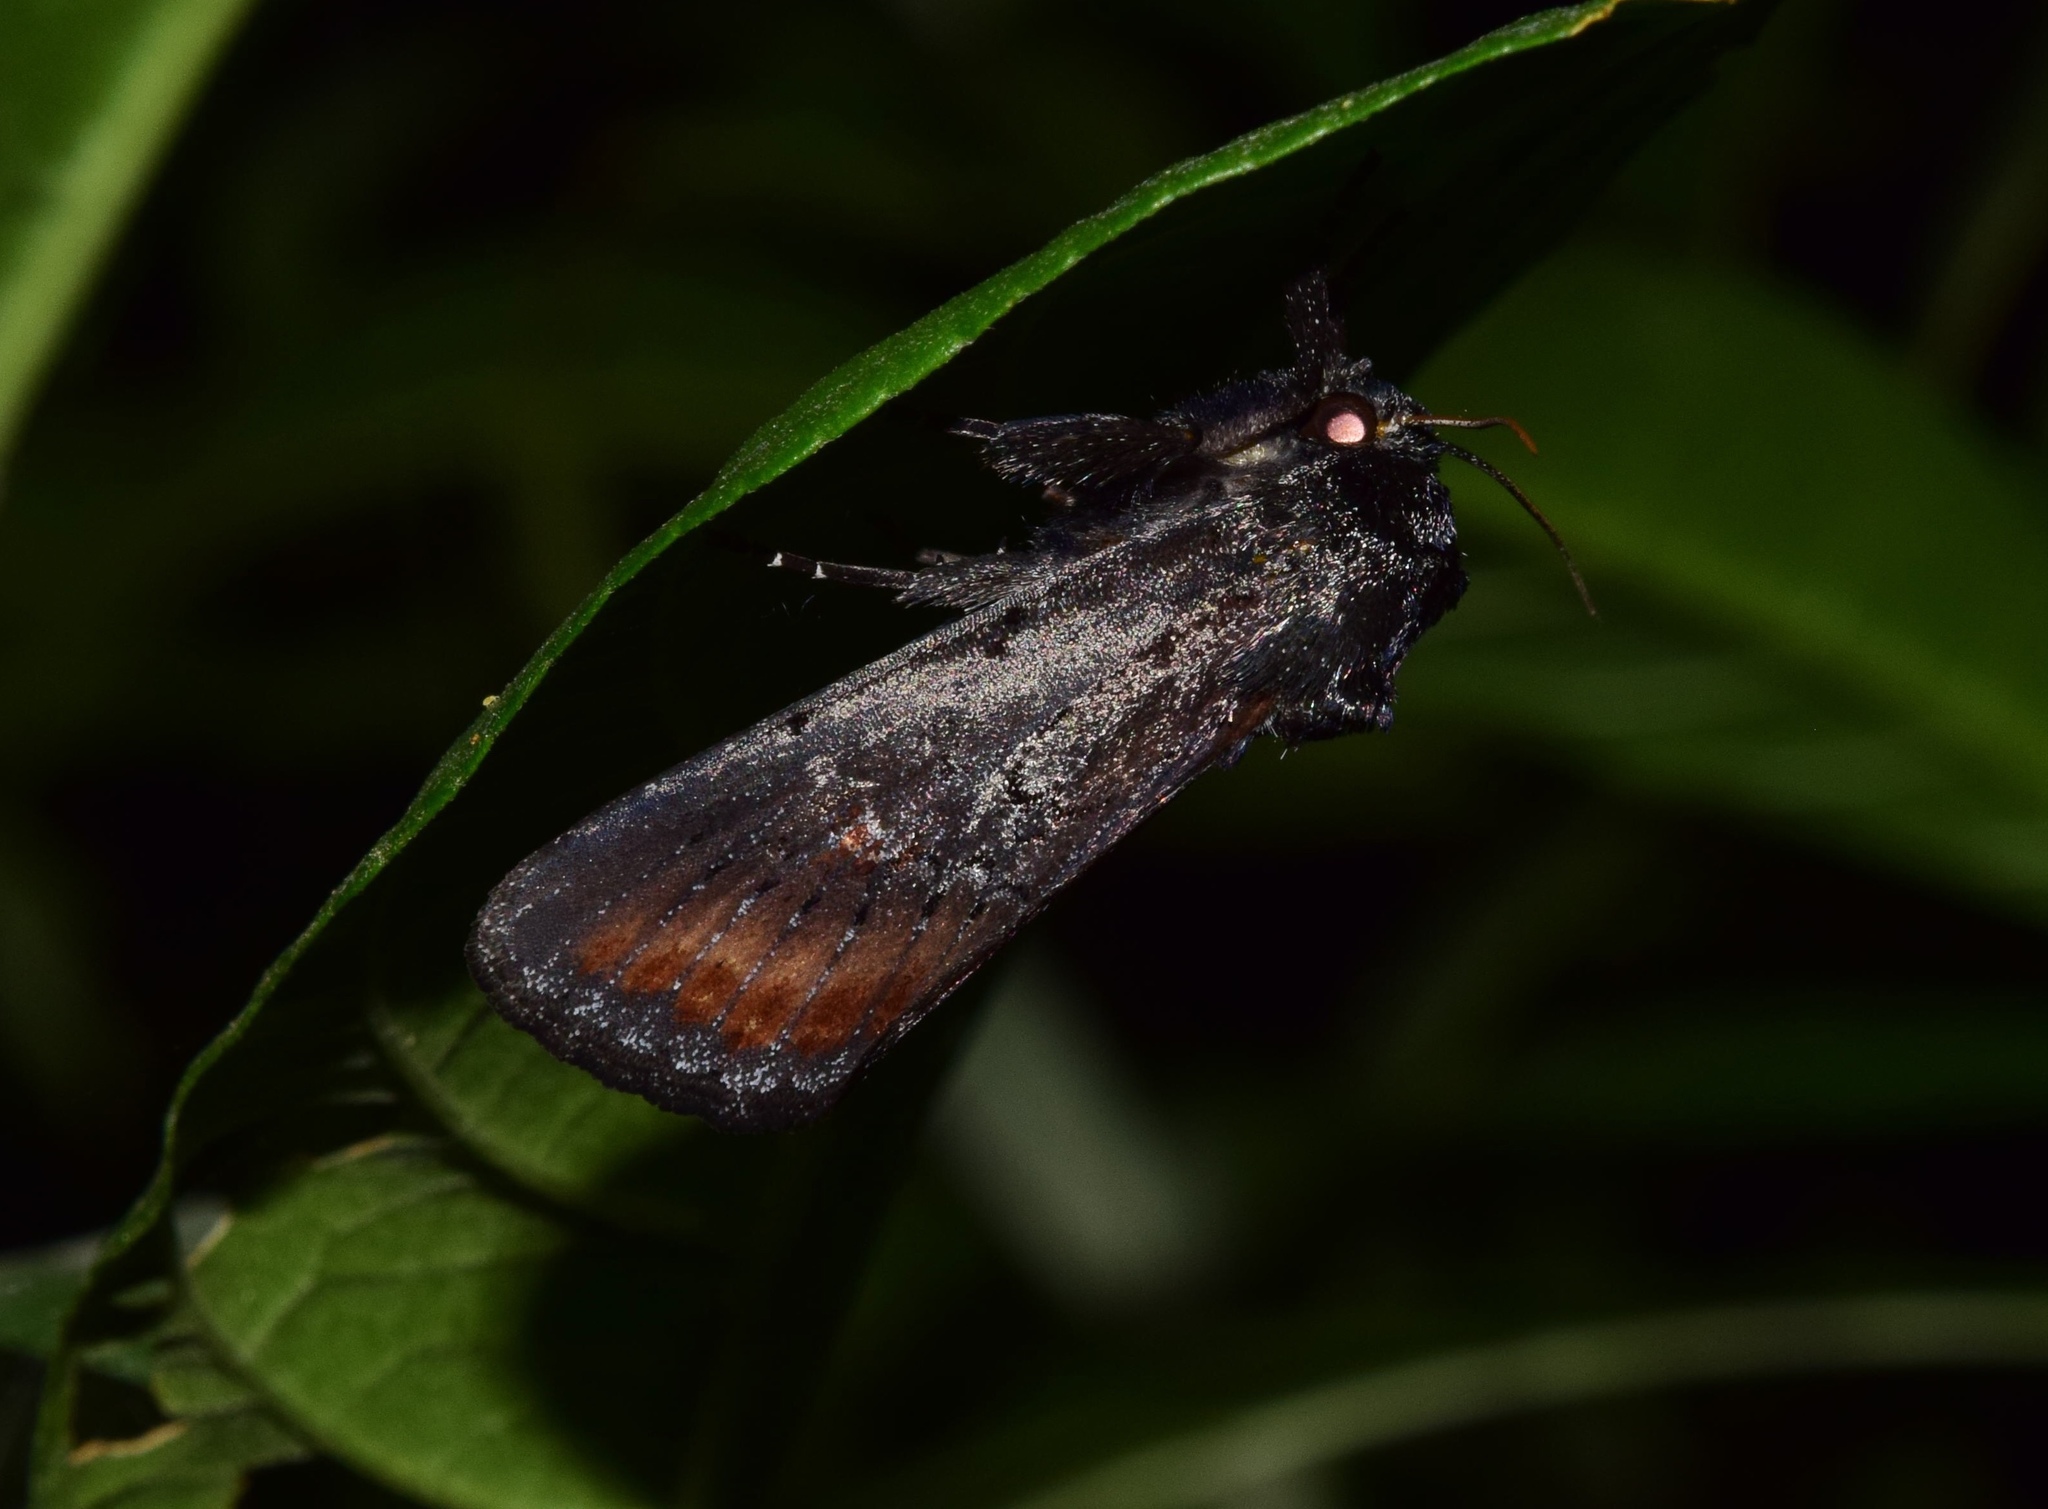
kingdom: Animalia
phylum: Arthropoda
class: Insecta
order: Lepidoptera
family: Noctuidae
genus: Brithys
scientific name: Brithys crini
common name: Kew arches
